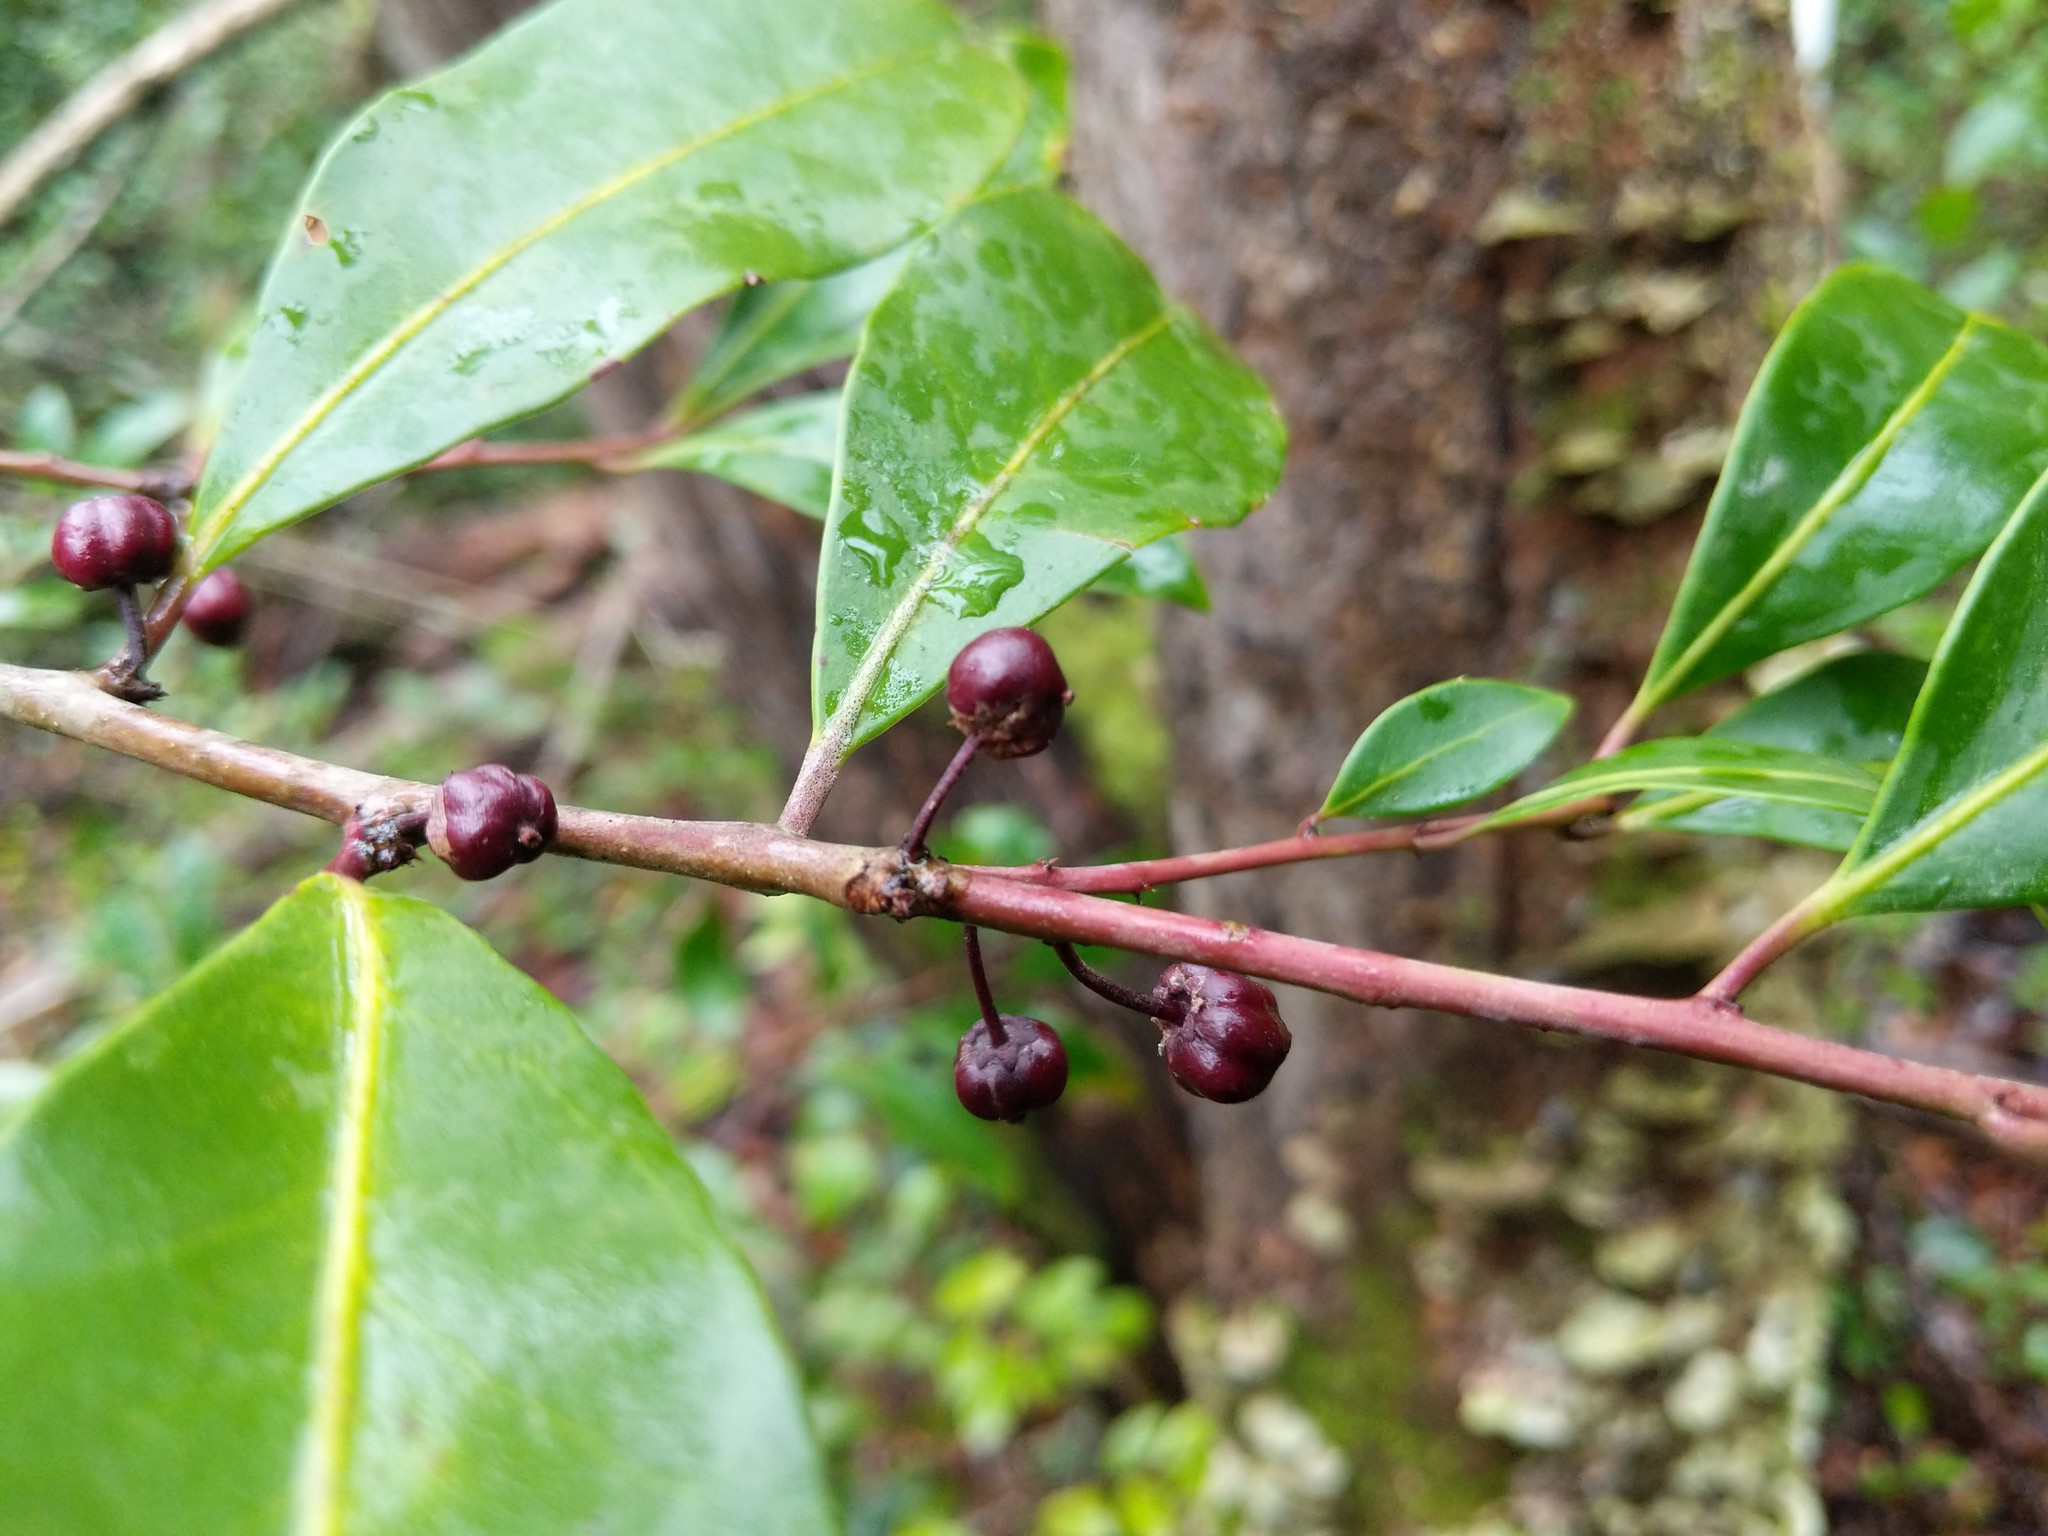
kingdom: Plantae
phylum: Tracheophyta
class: Magnoliopsida
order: Aquifoliales
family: Aquifoliaceae
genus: Ilex
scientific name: Ilex coriacea
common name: Sweet gallberry
